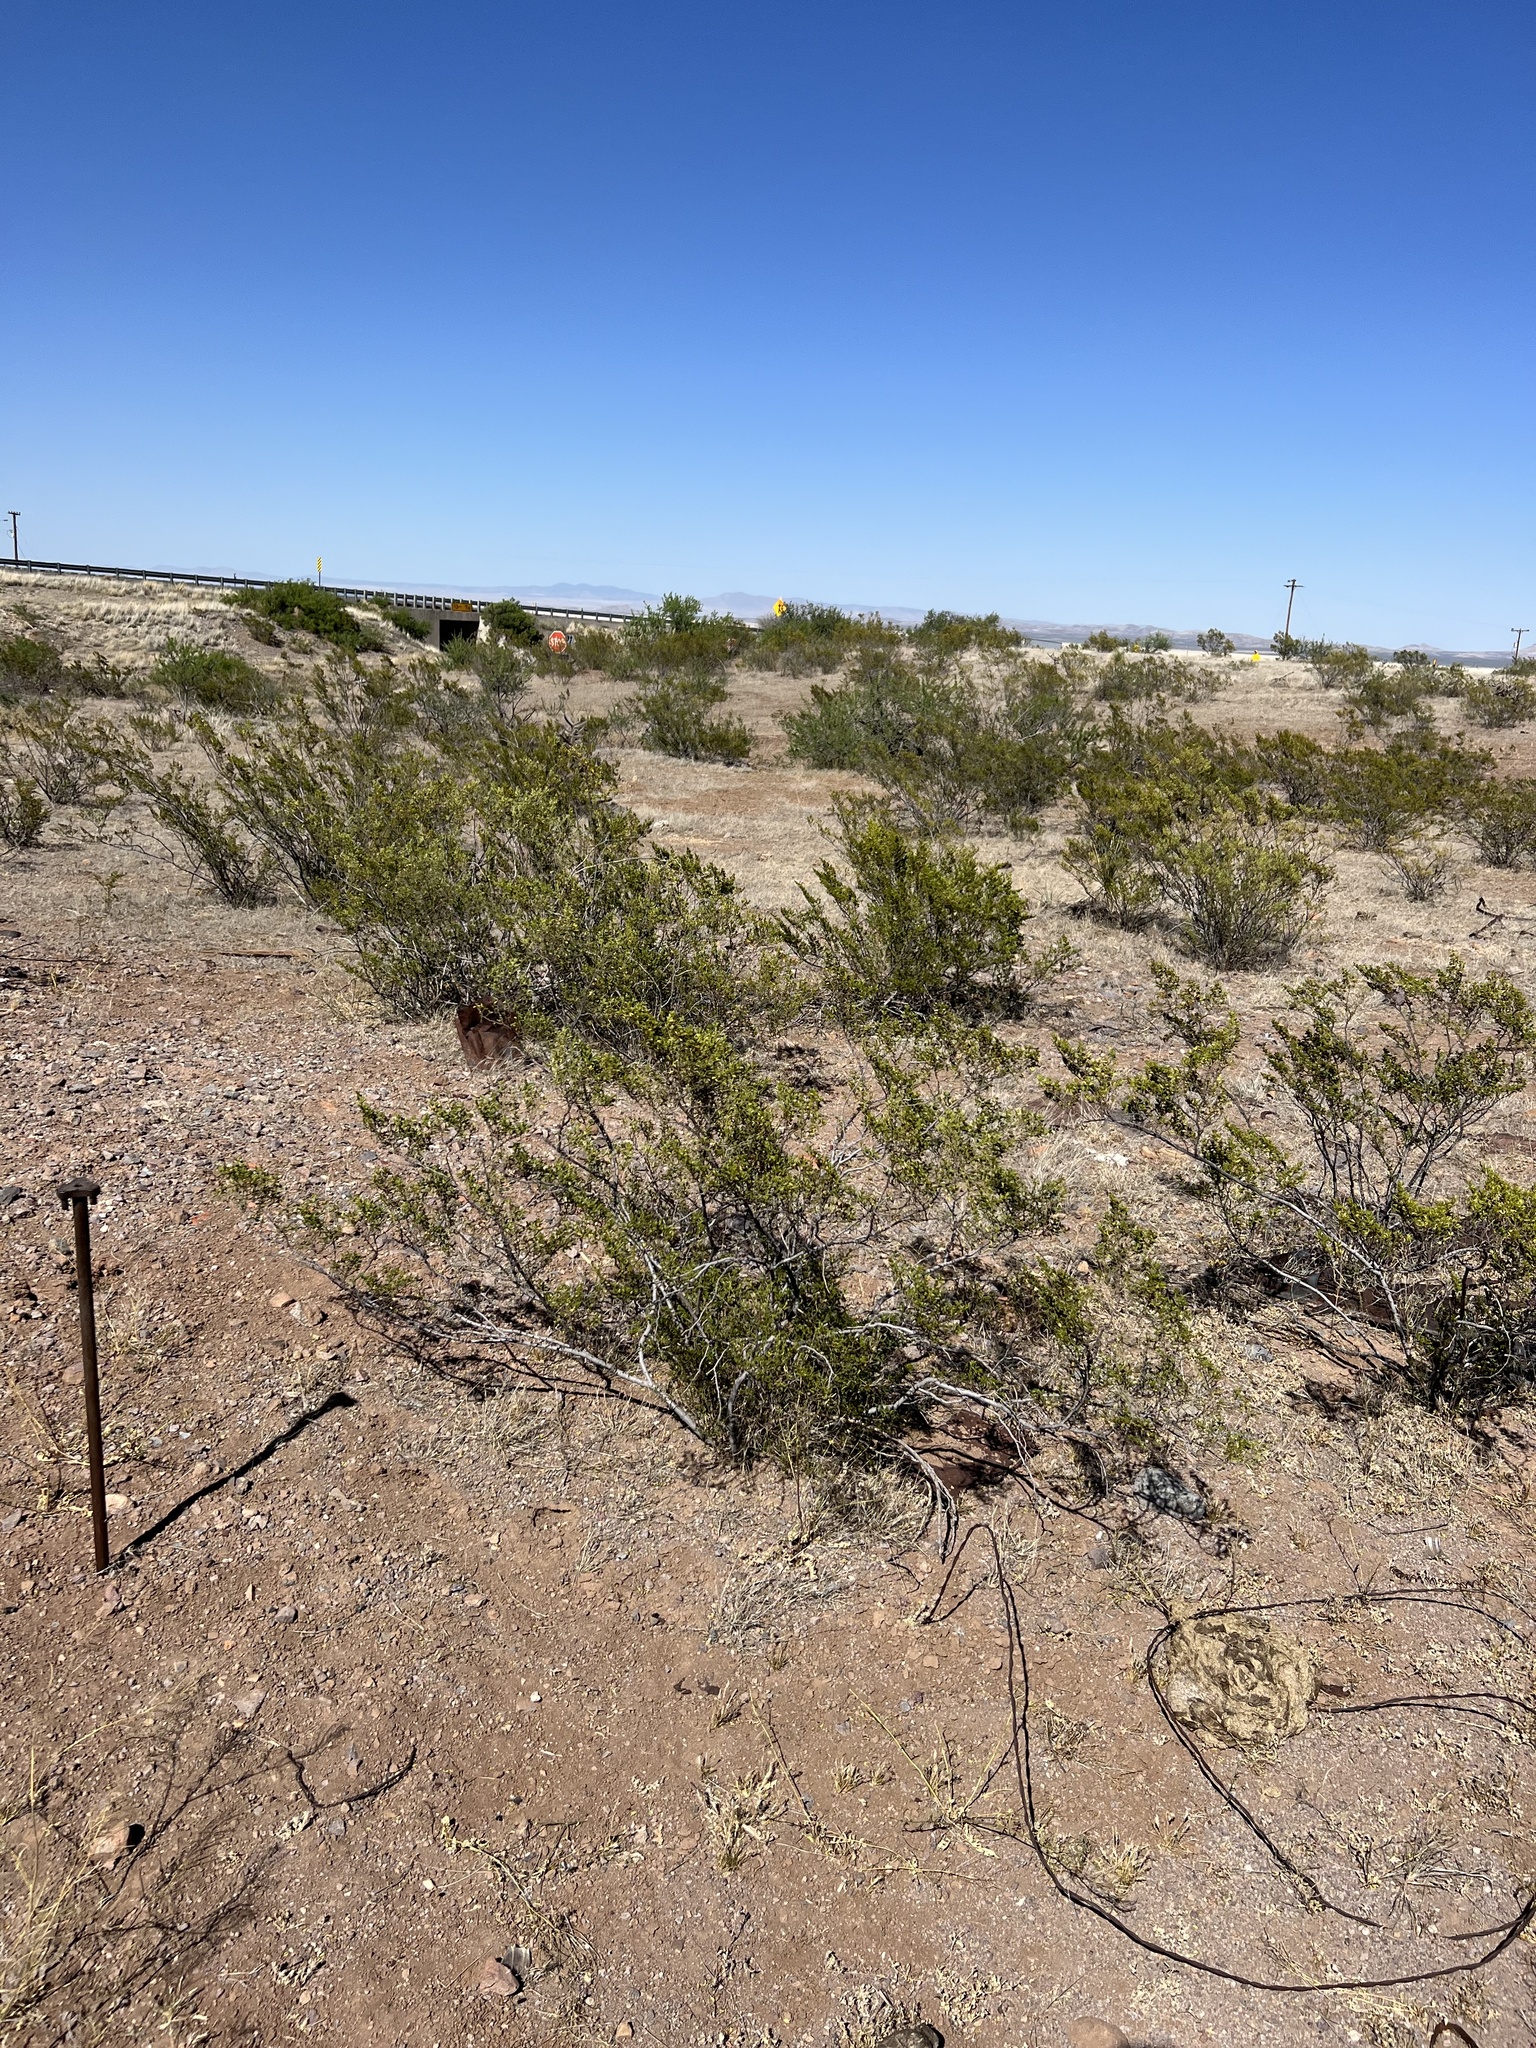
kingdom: Plantae
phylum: Tracheophyta
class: Magnoliopsida
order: Zygophyllales
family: Zygophyllaceae
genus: Larrea
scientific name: Larrea tridentata
